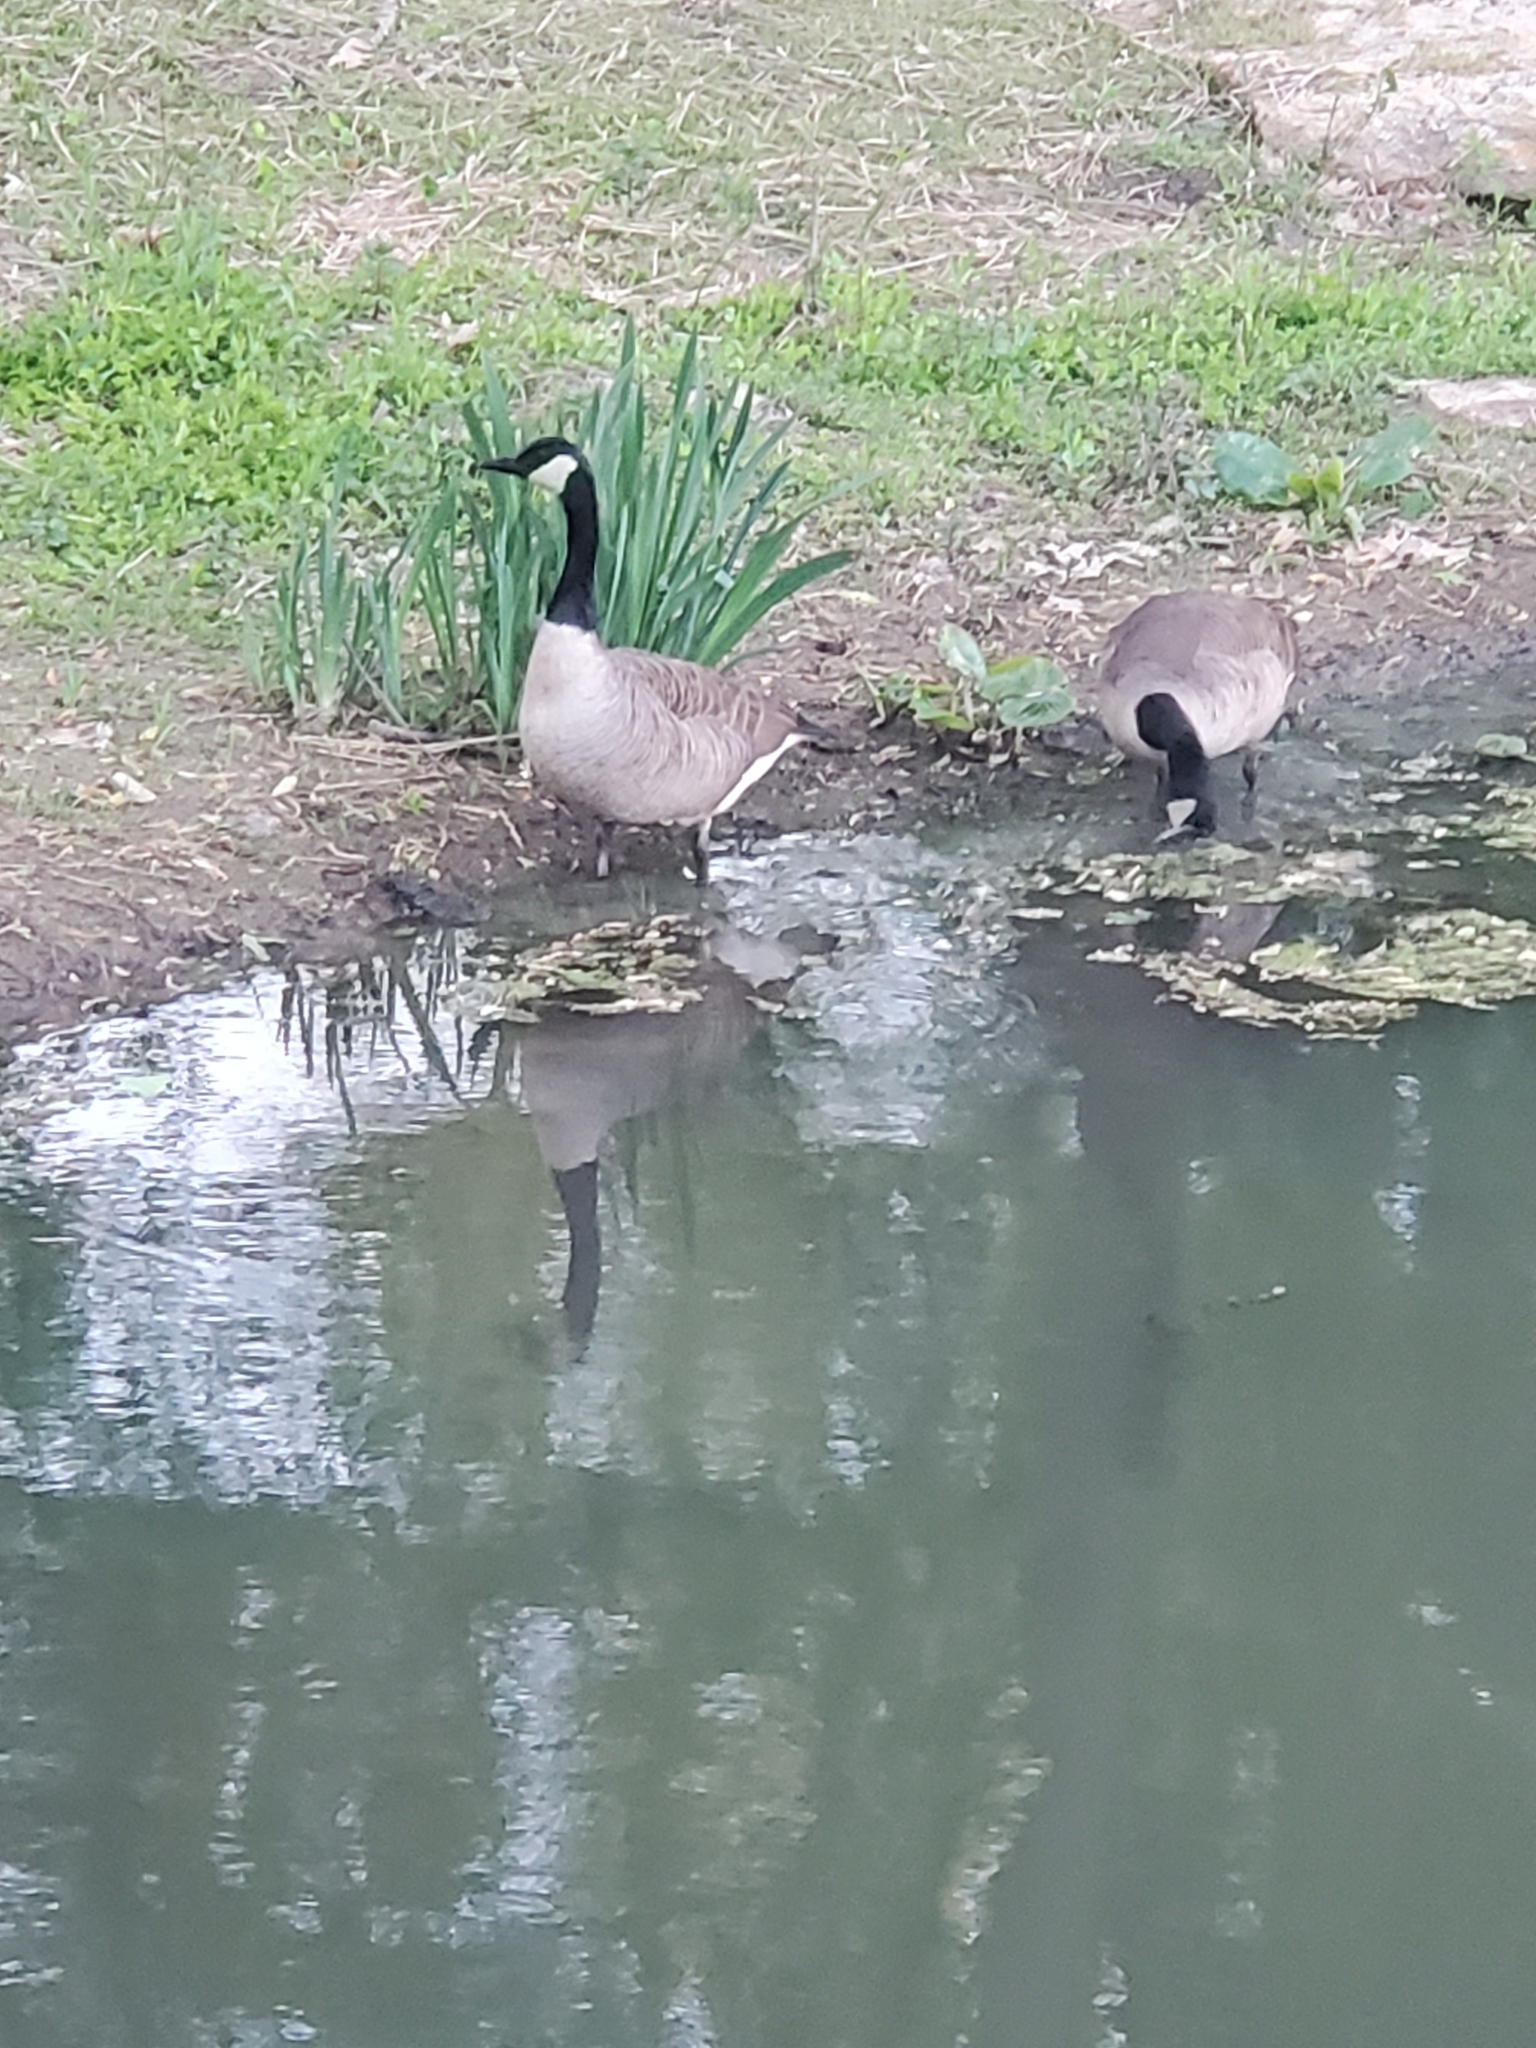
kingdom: Animalia
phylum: Chordata
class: Aves
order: Anseriformes
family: Anatidae
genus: Branta
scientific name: Branta canadensis
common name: Canada goose
